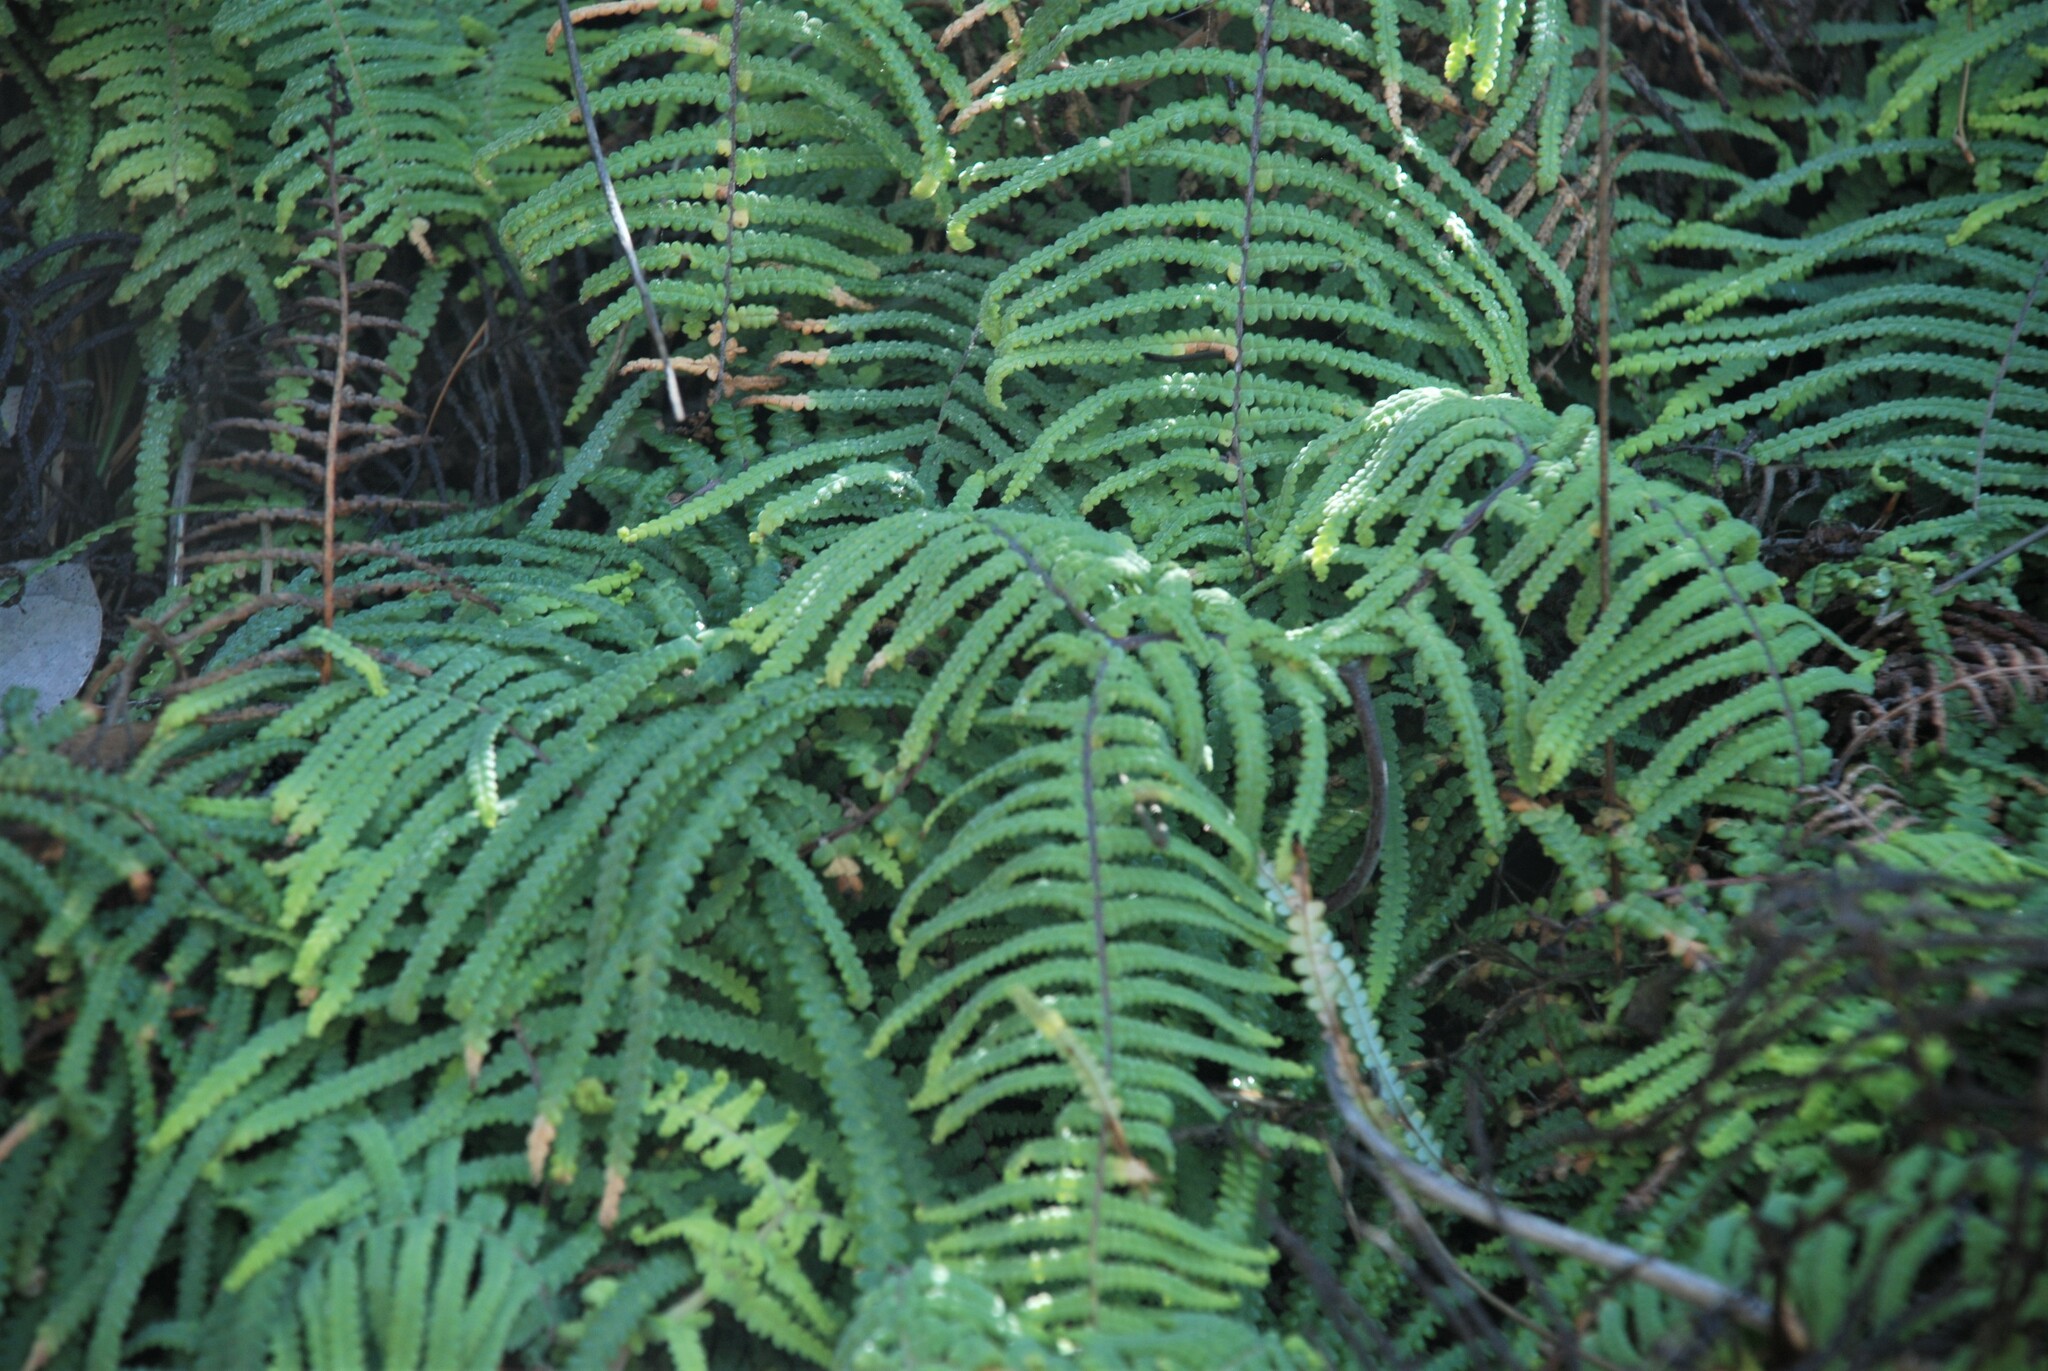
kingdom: Plantae
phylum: Tracheophyta
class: Polypodiopsida
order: Gleicheniales
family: Gleicheniaceae
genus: Gleichenia
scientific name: Gleichenia mendellii
